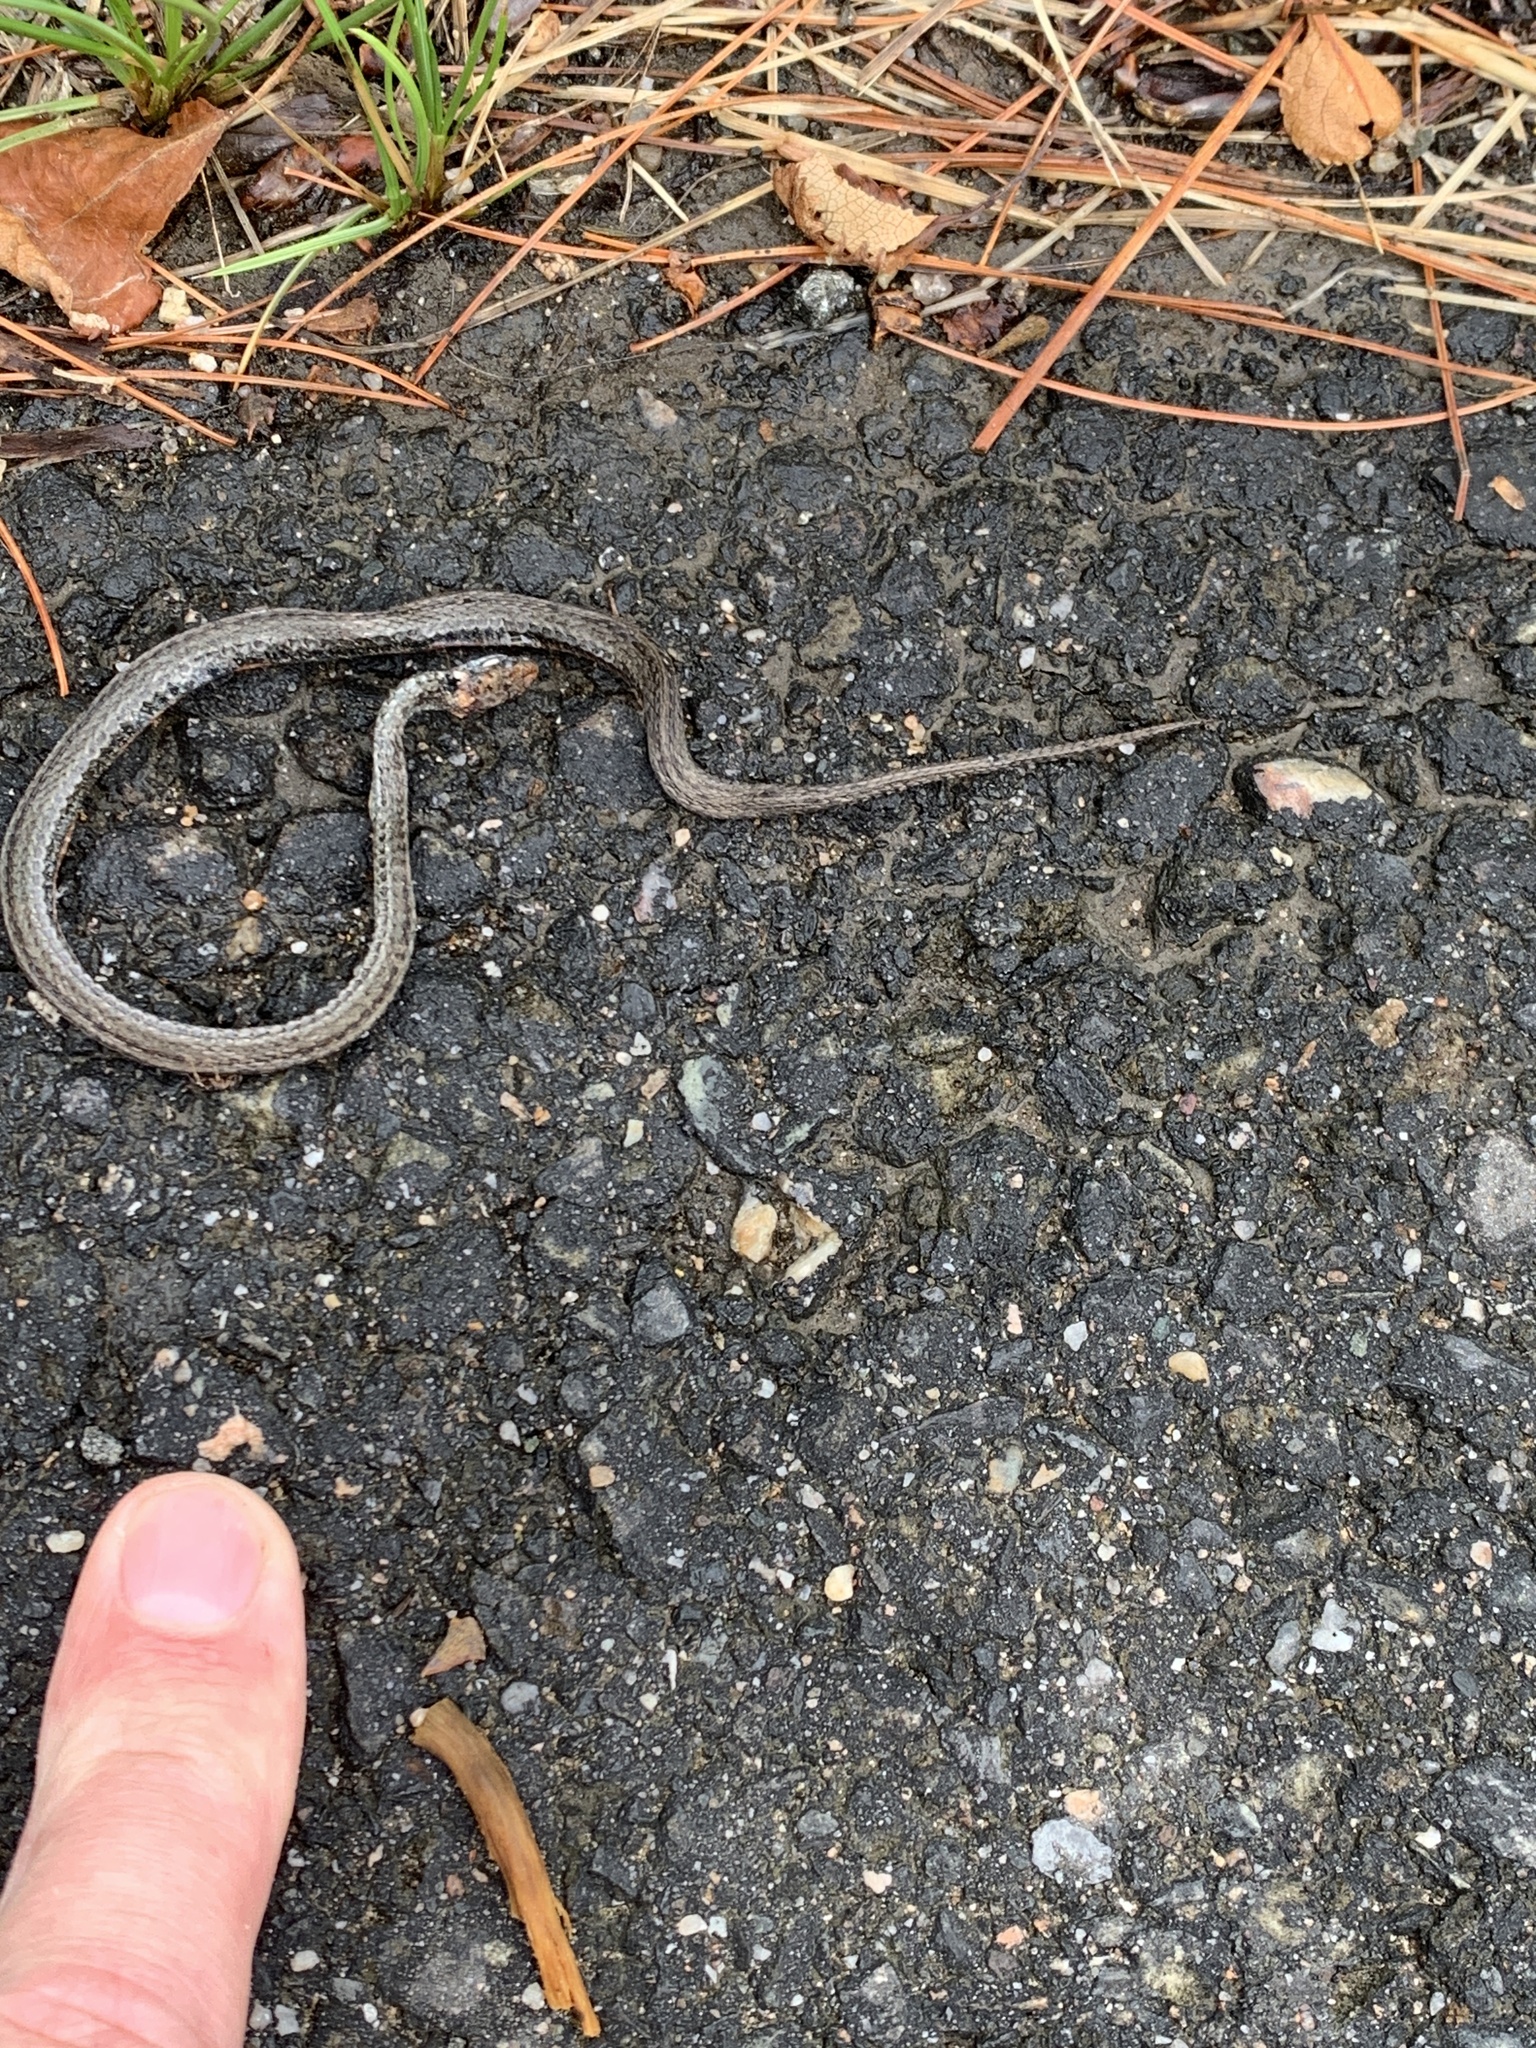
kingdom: Animalia
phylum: Chordata
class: Squamata
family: Colubridae
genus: Thamnophis
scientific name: Thamnophis sirtalis
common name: Common garter snake
